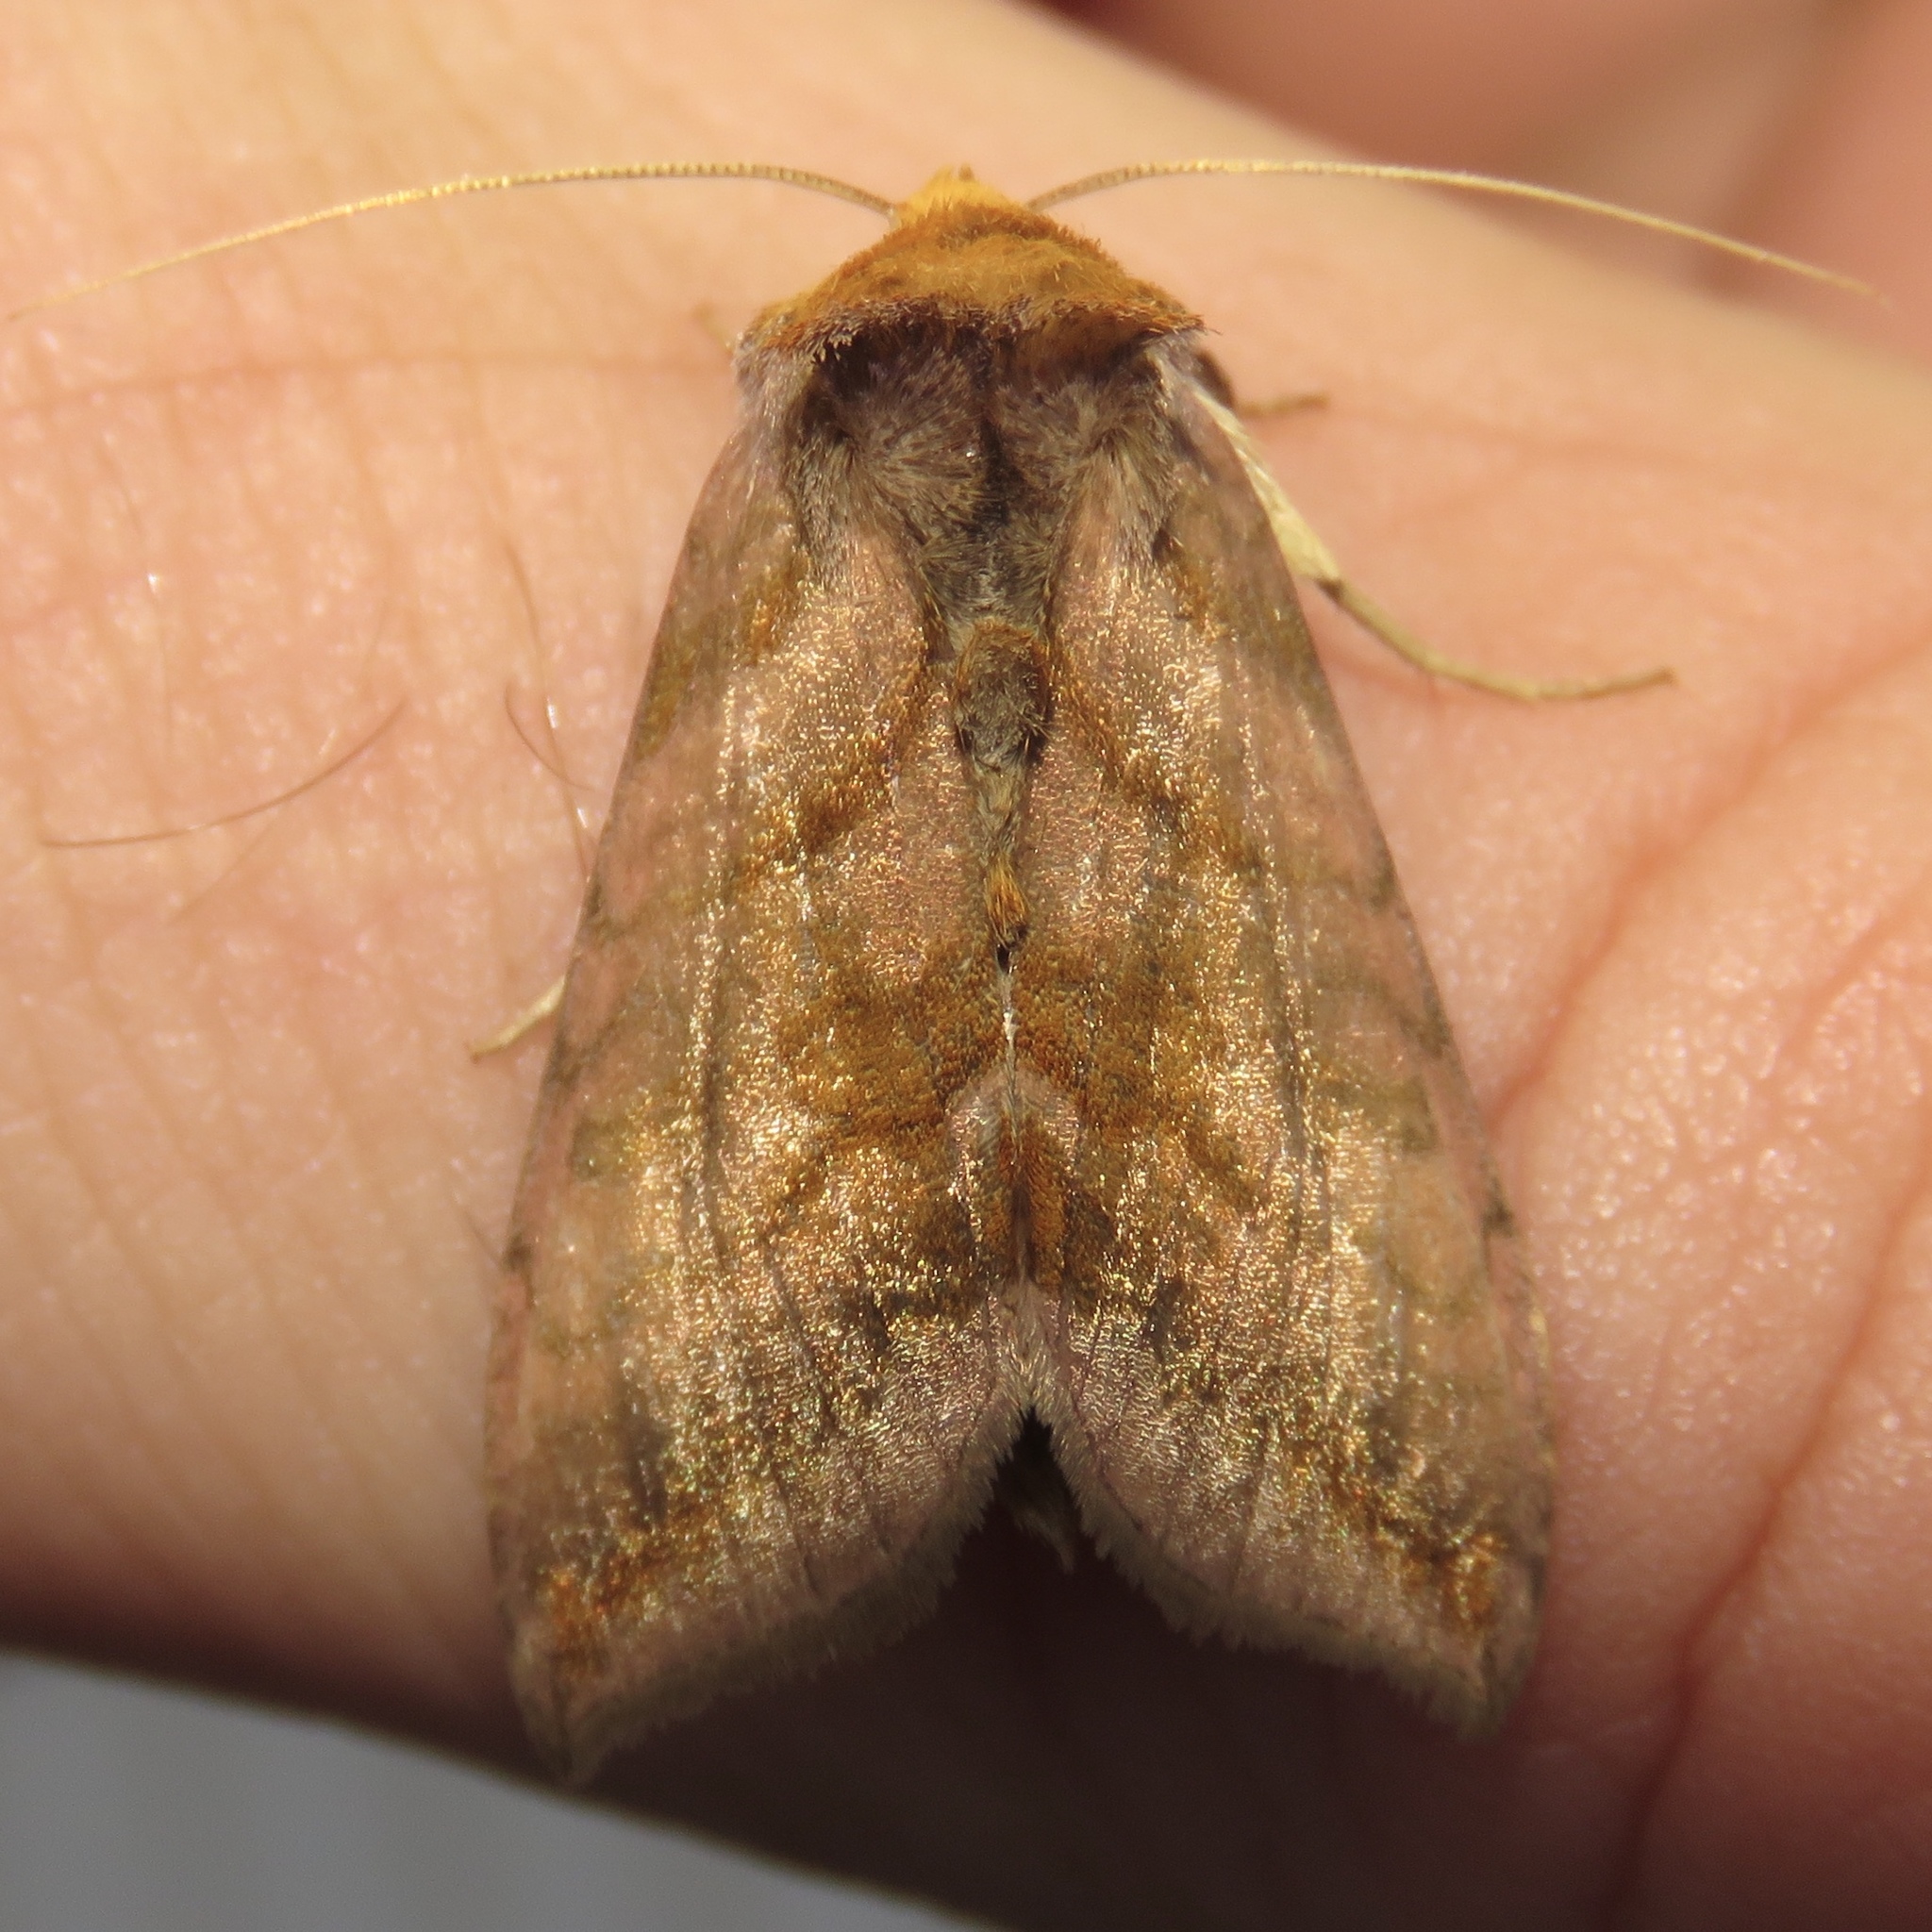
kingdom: Animalia
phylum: Arthropoda
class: Insecta
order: Lepidoptera
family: Noctuidae
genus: Allagrapha
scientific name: Allagrapha aerea
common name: Unspotted looper moth
